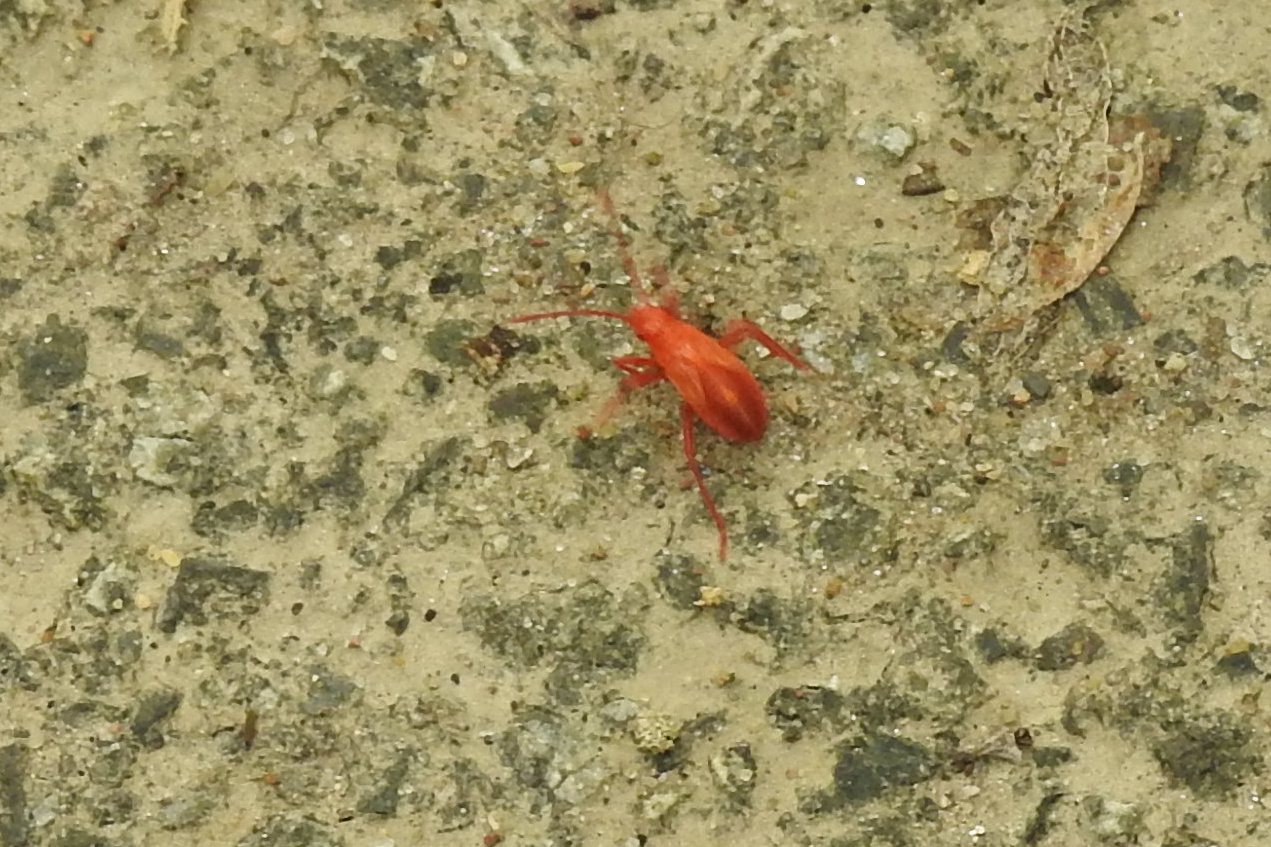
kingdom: Animalia
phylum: Arthropoda
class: Insecta
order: Hemiptera
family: Rhopalidae
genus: Boisea
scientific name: Boisea trivittata
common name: Boxelder bug
